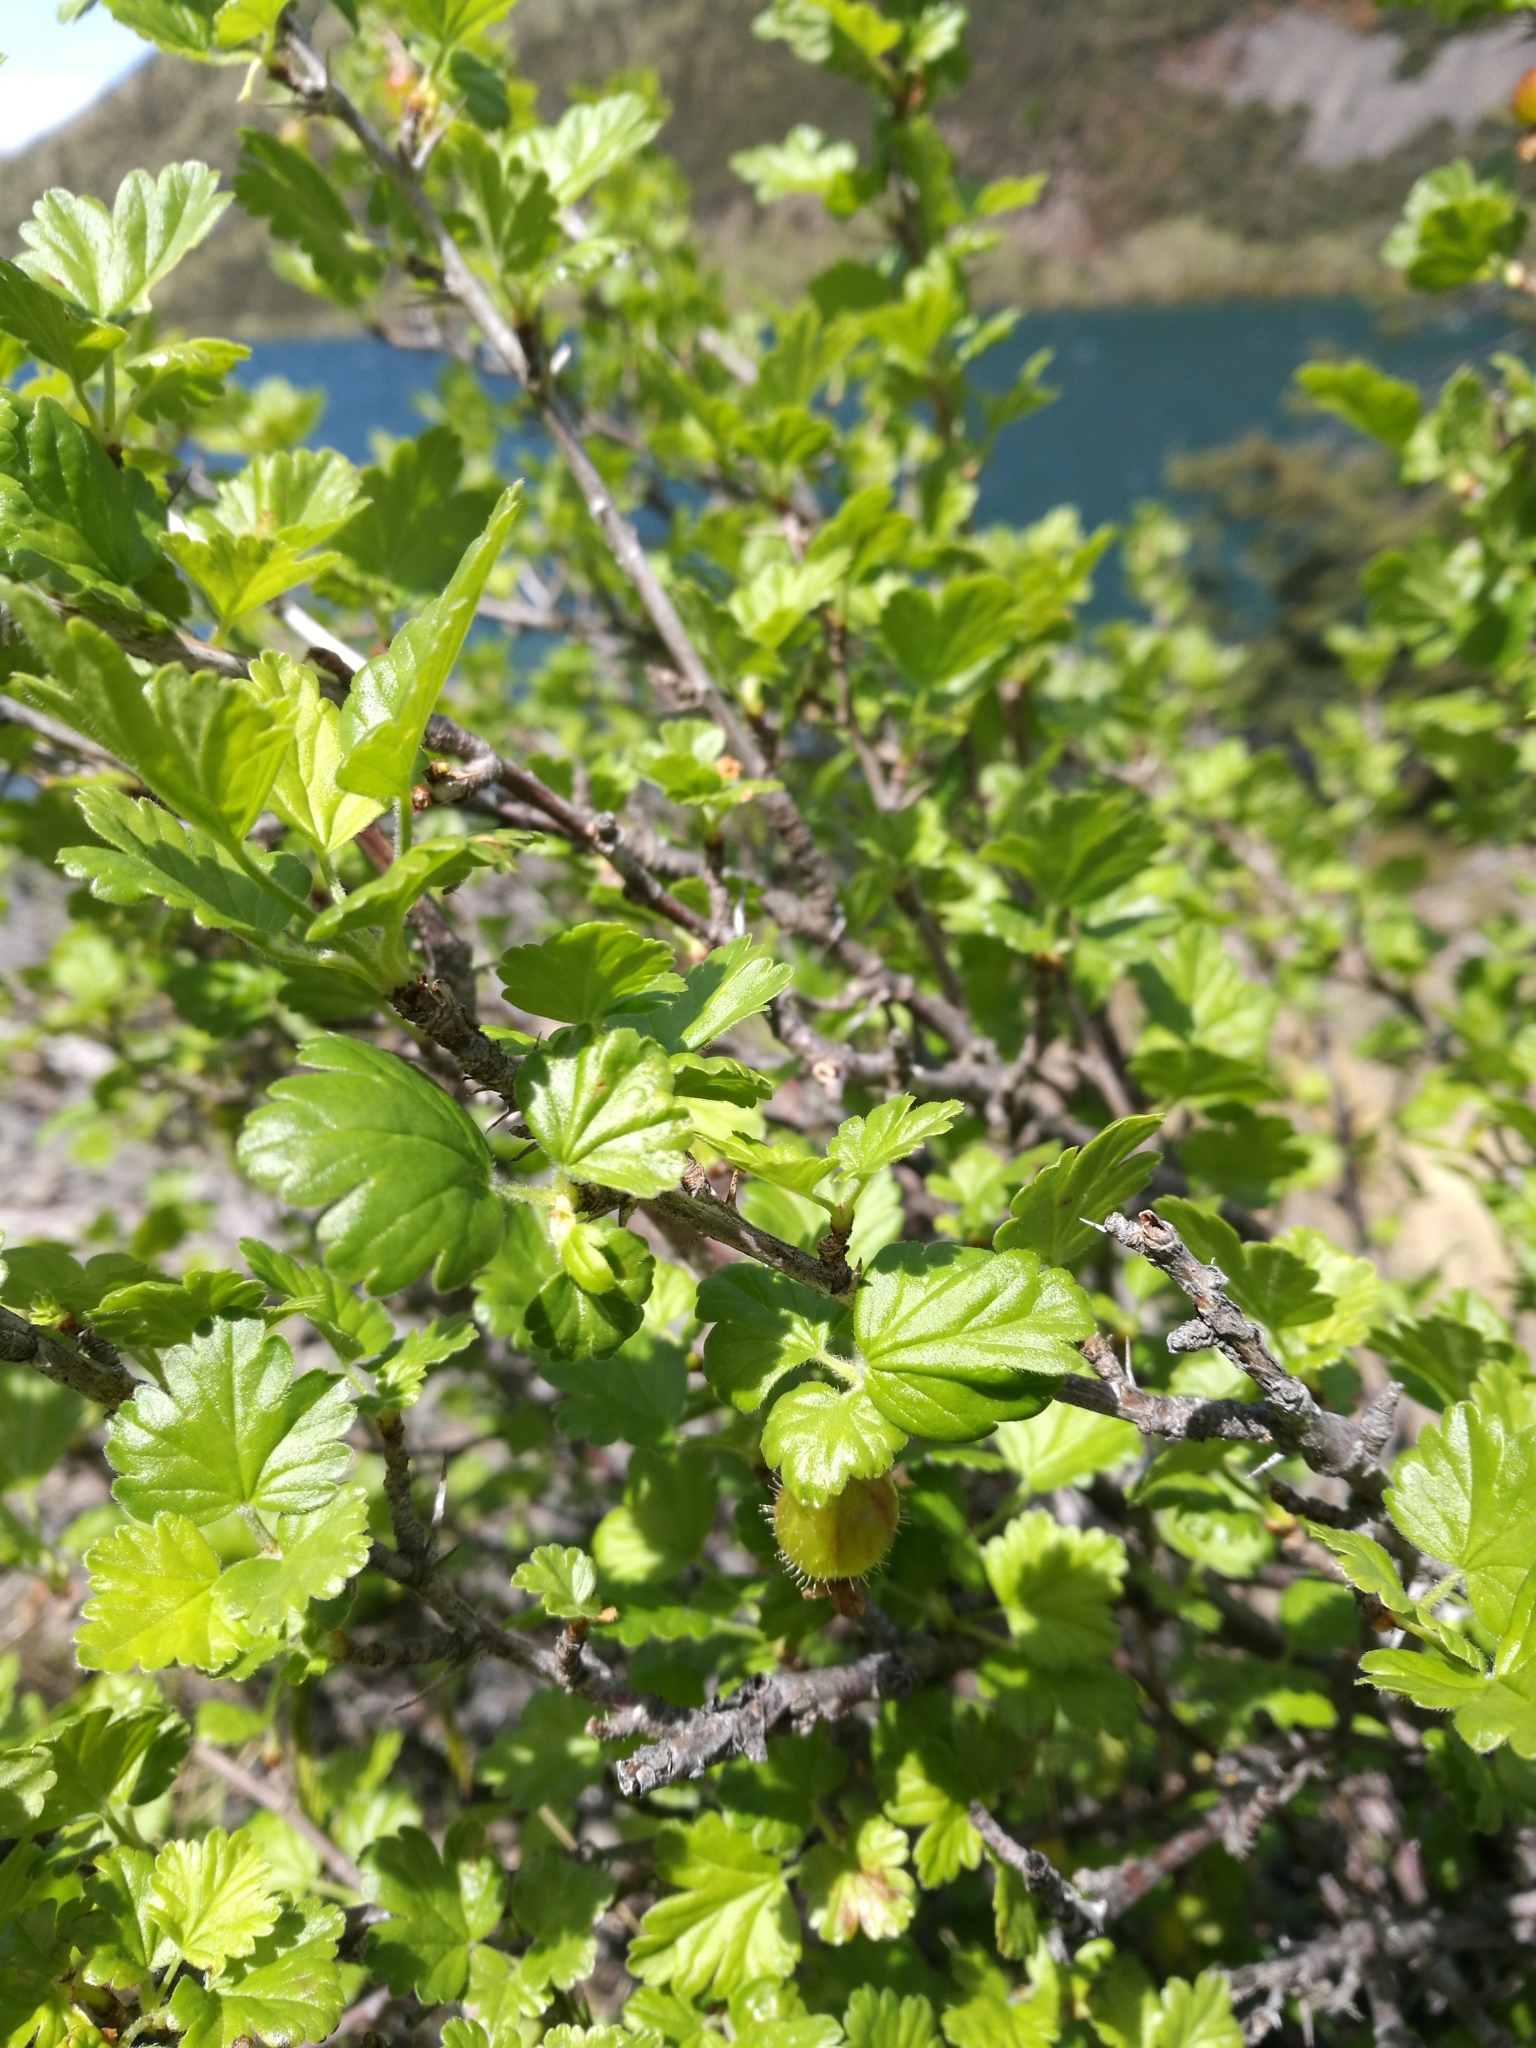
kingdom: Plantae
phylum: Tracheophyta
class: Magnoliopsida
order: Saxifragales
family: Grossulariaceae
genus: Ribes
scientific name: Ribes uva-crispa
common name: Gooseberry
